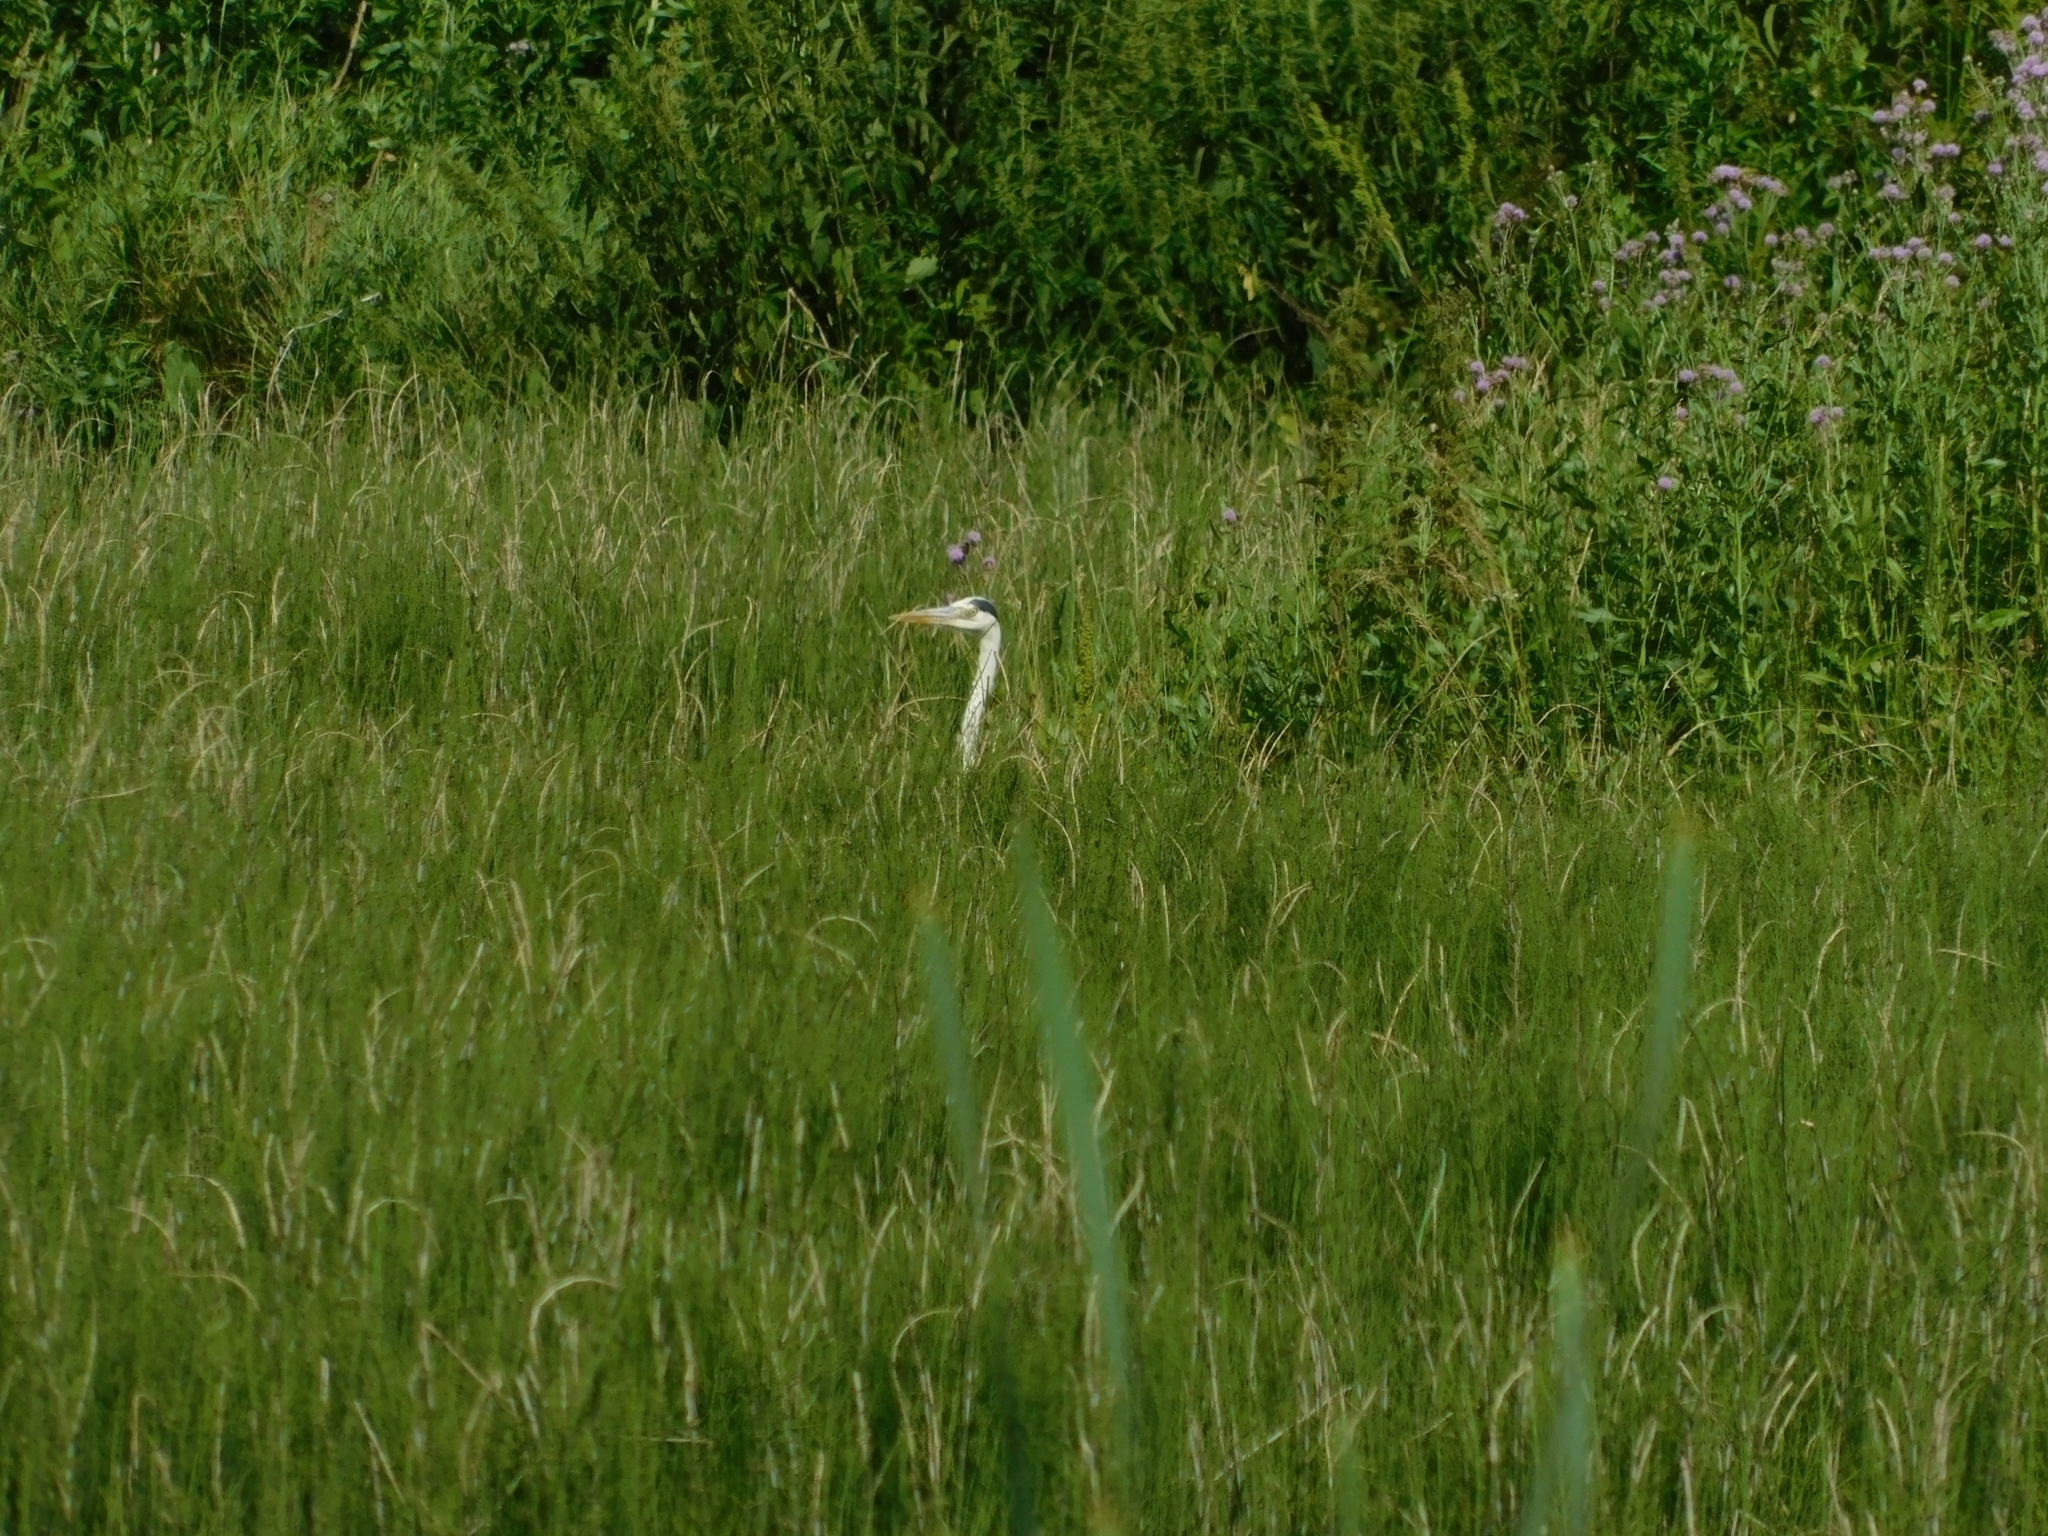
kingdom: Animalia
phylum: Chordata
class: Aves
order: Pelecaniformes
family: Ardeidae
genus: Ardea
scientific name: Ardea cinerea
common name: Grey heron
